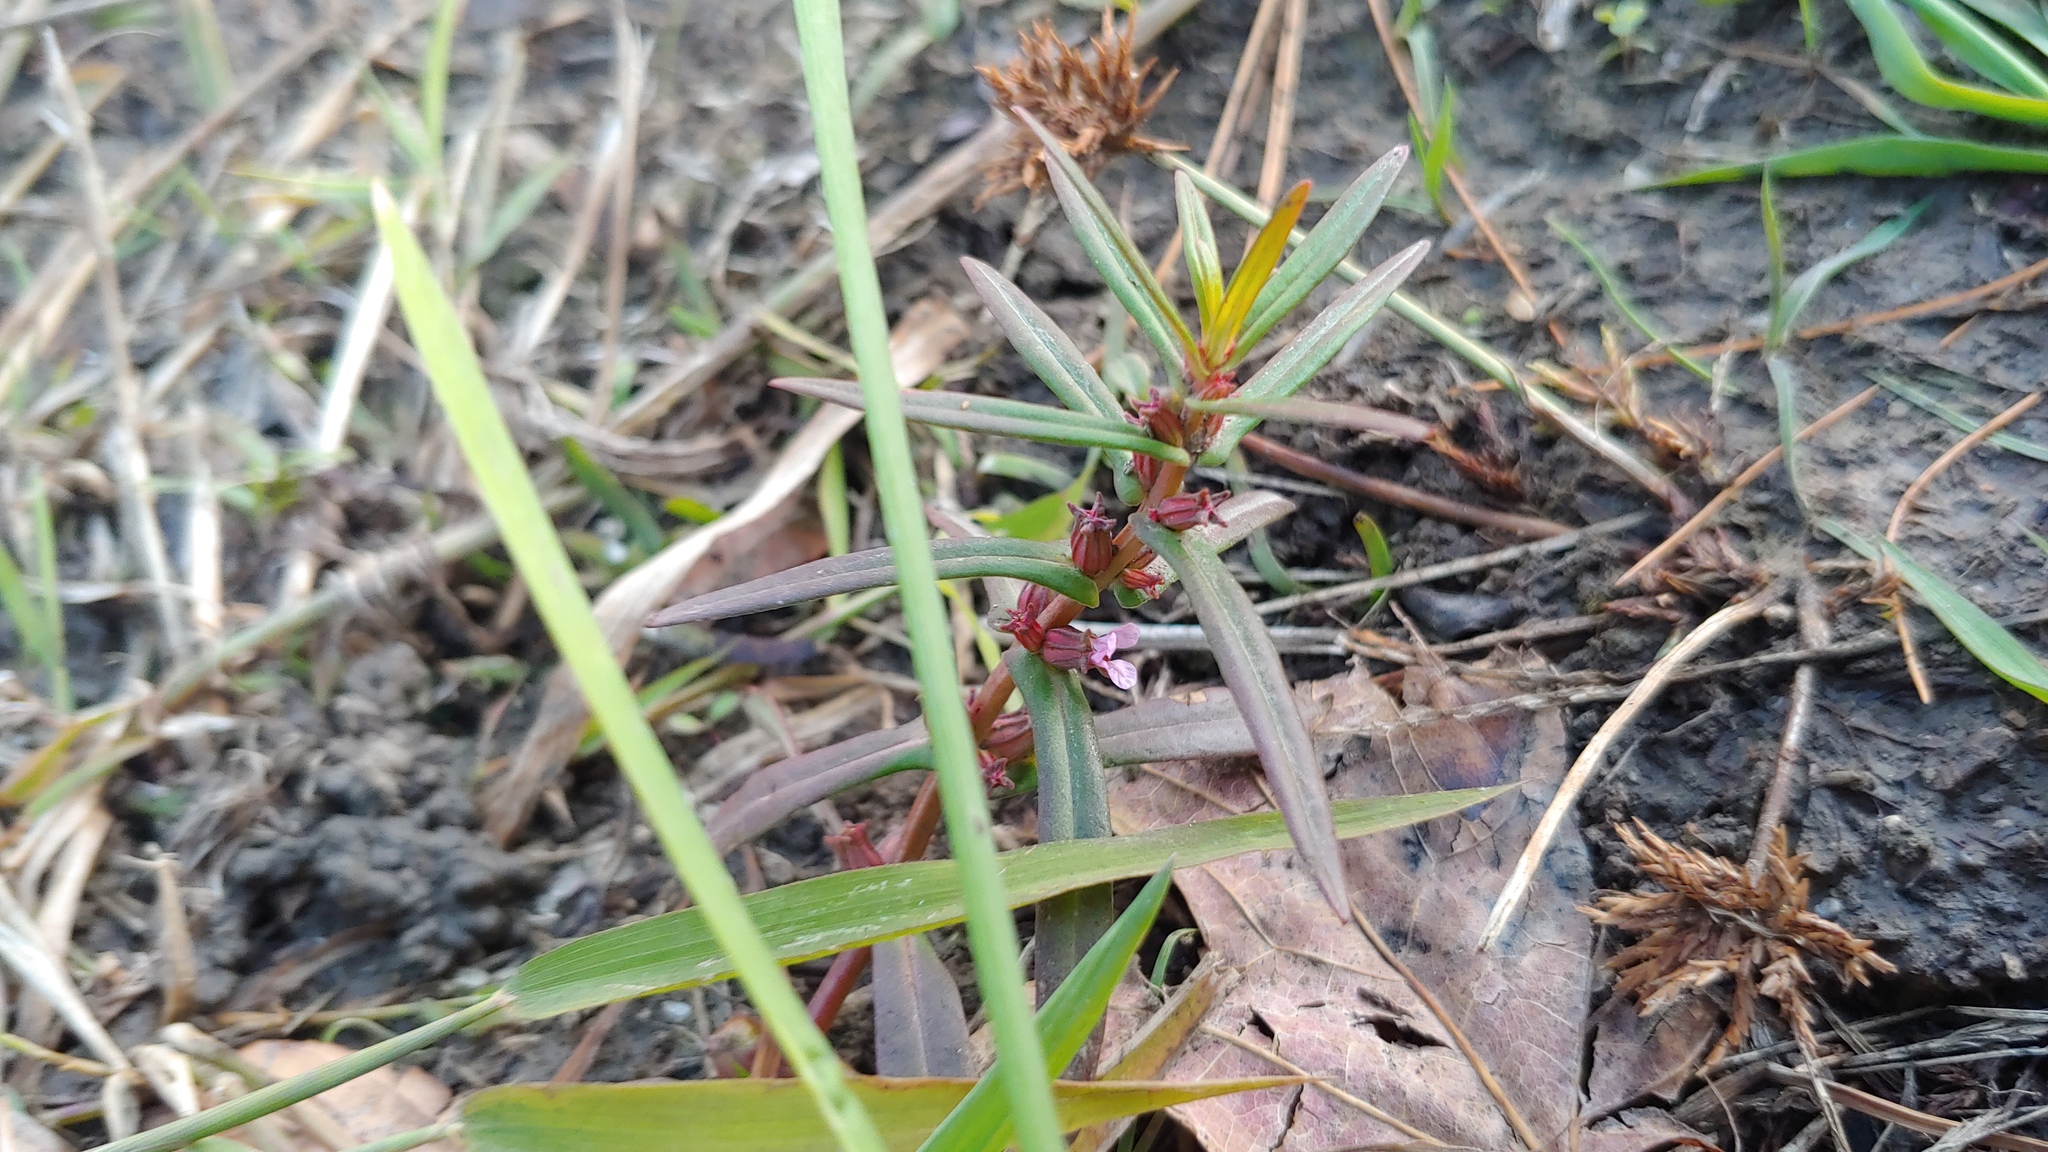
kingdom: Plantae
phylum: Tracheophyta
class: Magnoliopsida
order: Myrtales
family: Lythraceae
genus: Ammannia
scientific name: Ammannia robusta
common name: Grand ammannia
